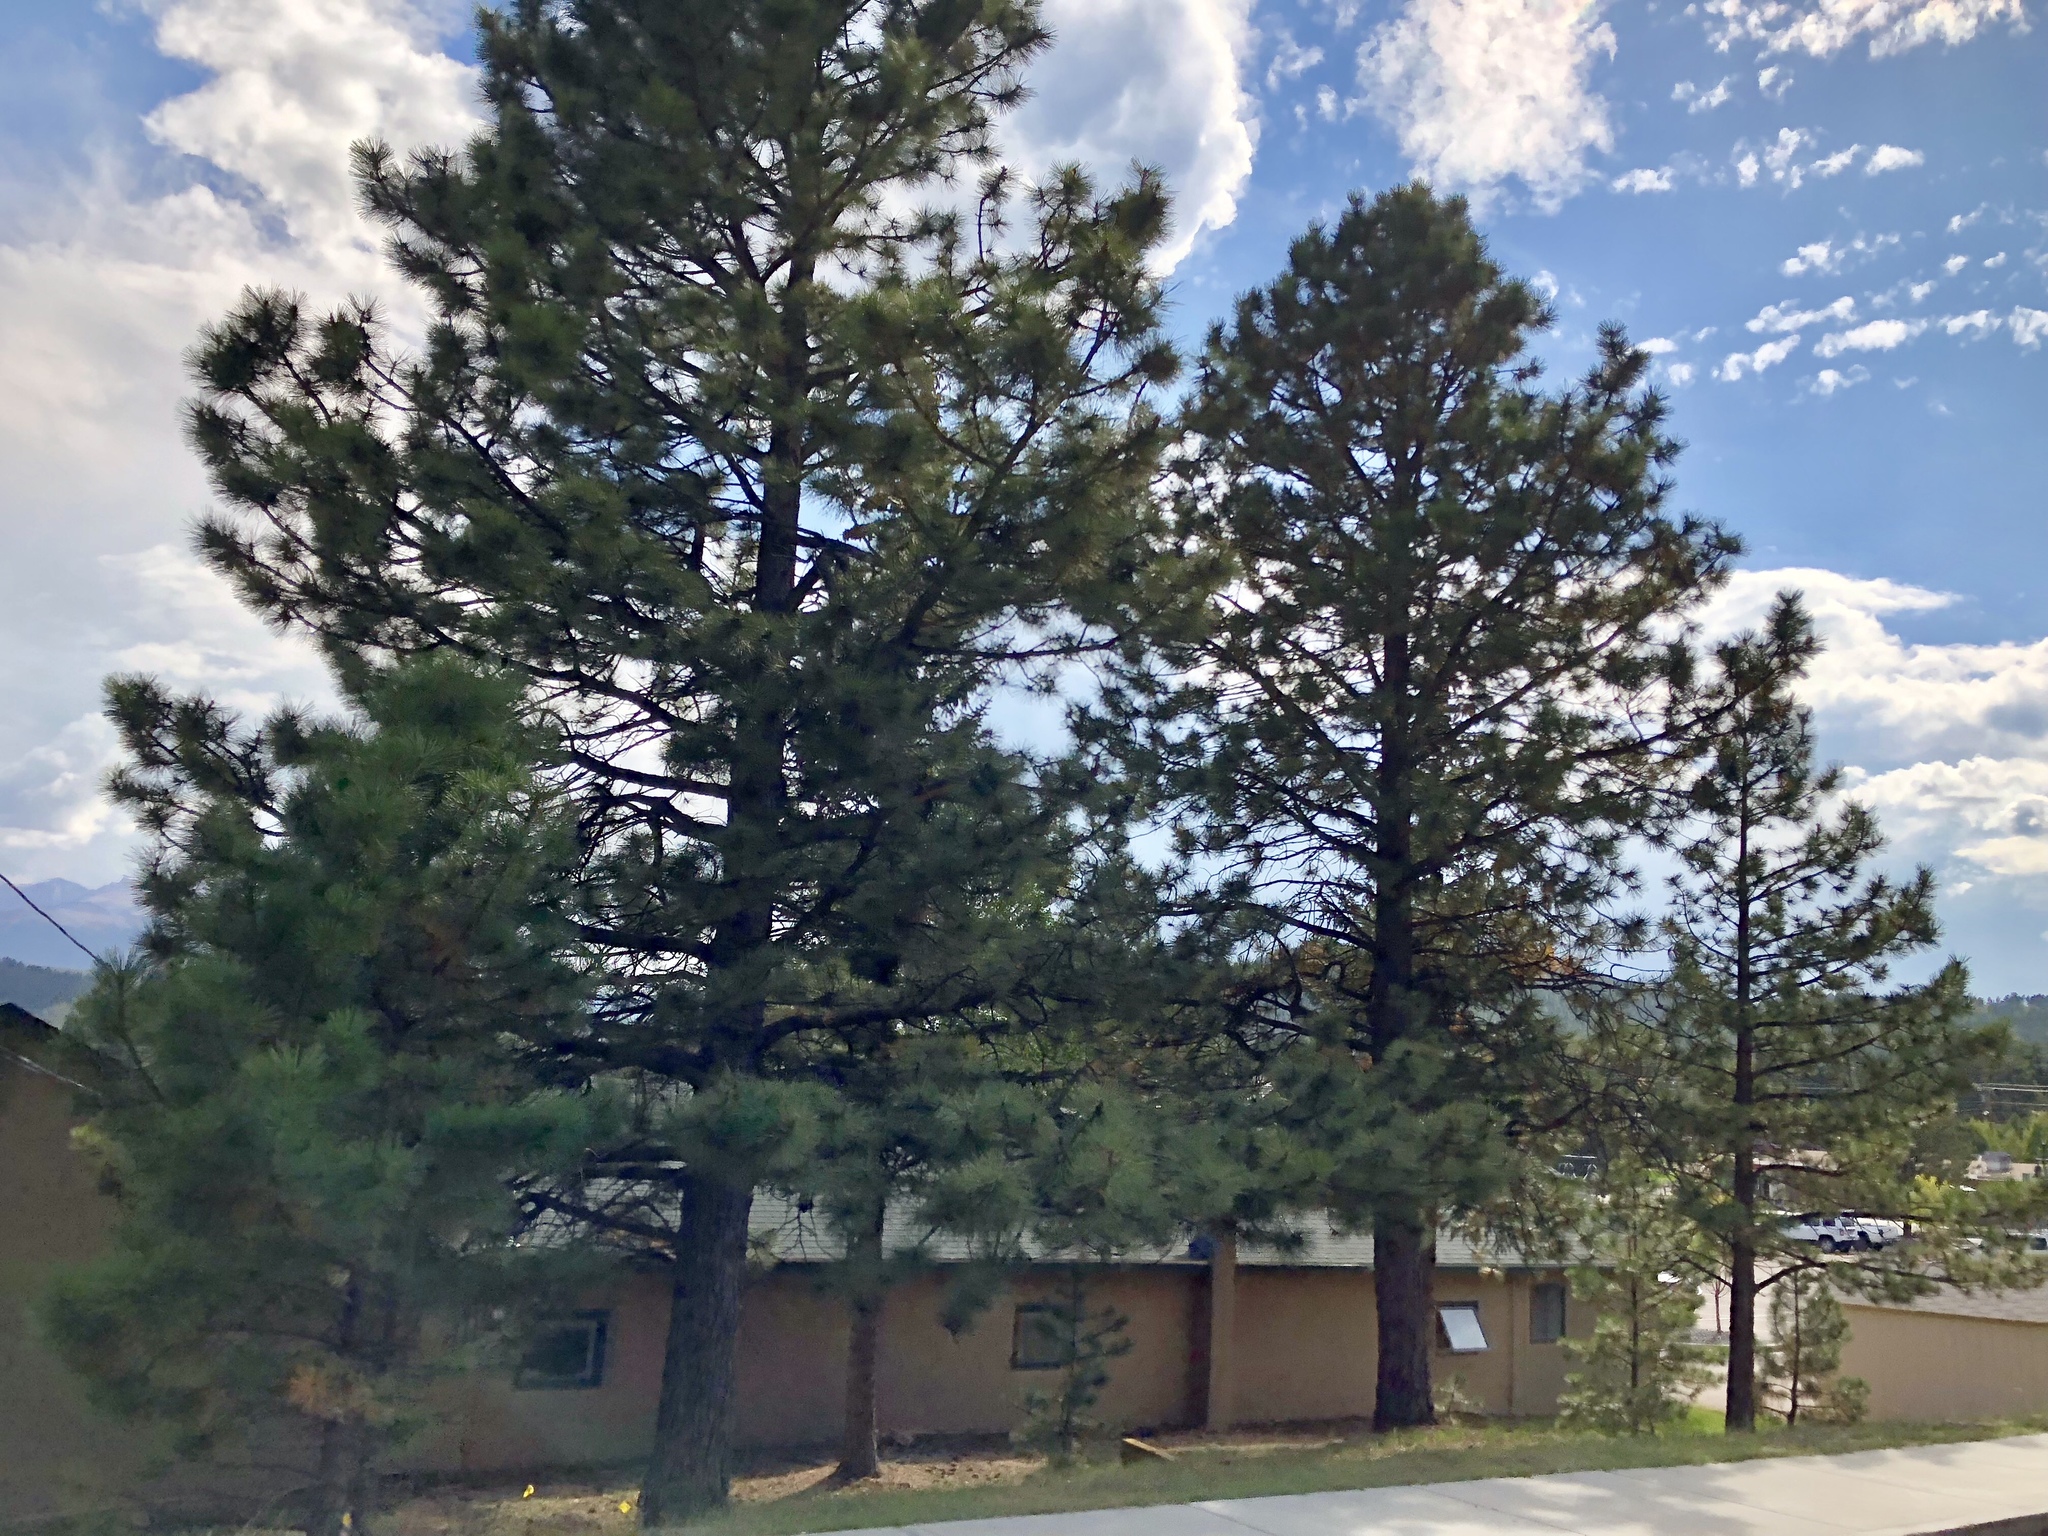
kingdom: Plantae
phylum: Tracheophyta
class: Pinopsida
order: Pinales
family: Pinaceae
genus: Pinus
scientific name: Pinus ponderosa
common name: Western yellow-pine
